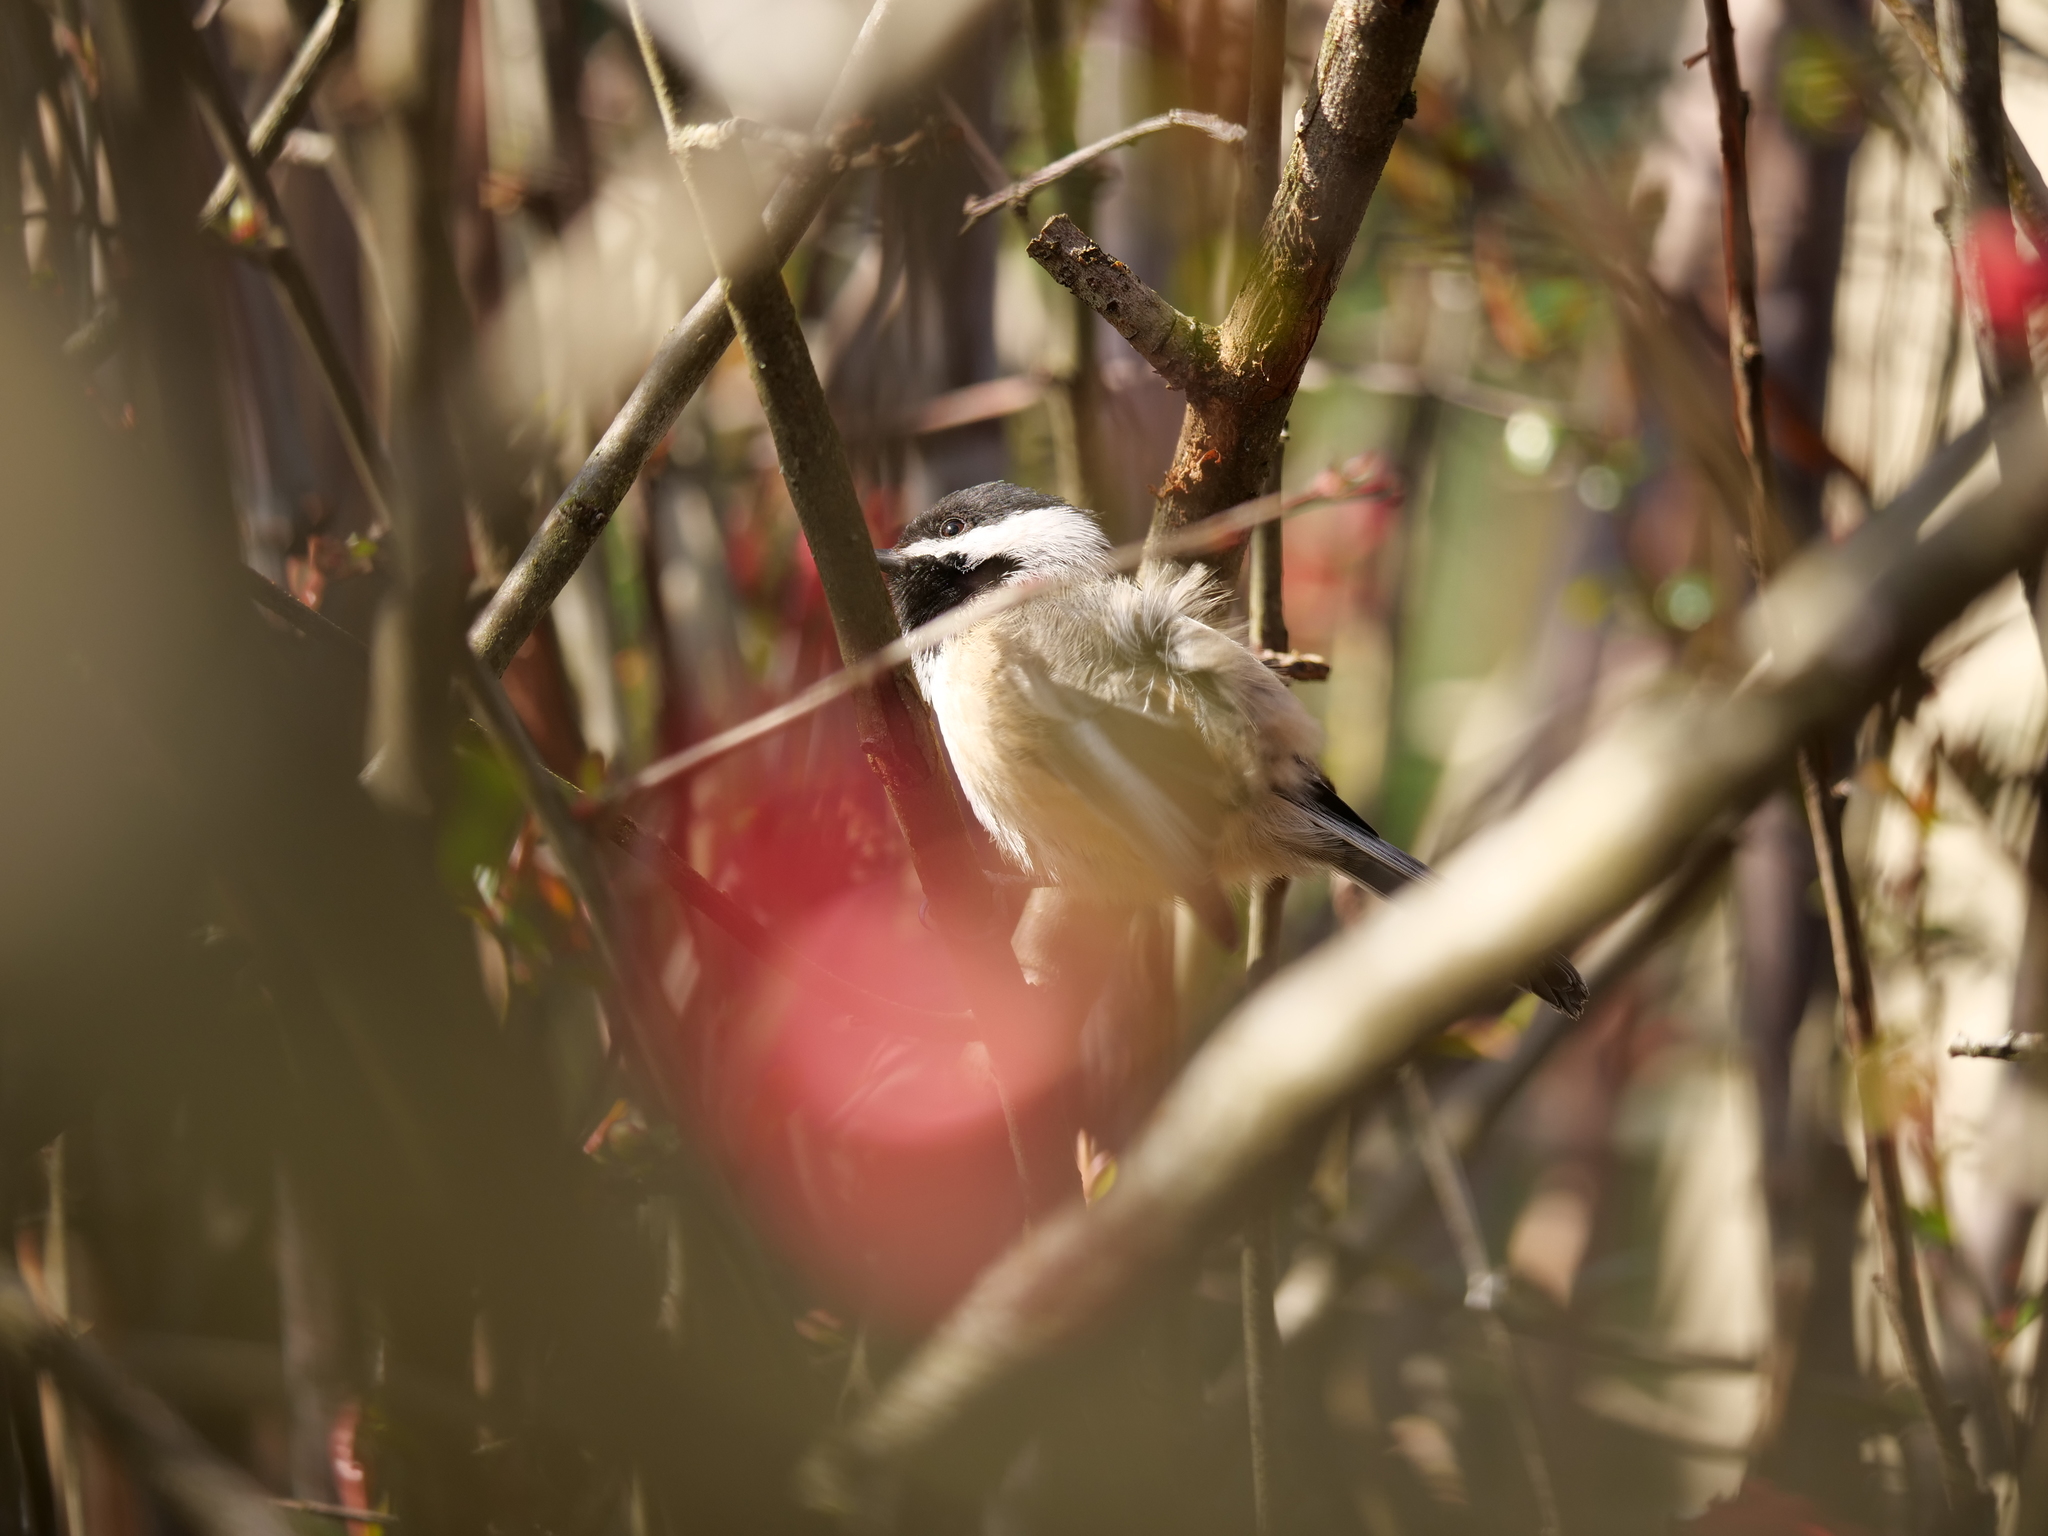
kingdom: Animalia
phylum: Chordata
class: Aves
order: Passeriformes
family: Paridae
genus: Poecile
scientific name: Poecile atricapillus
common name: Black-capped chickadee
